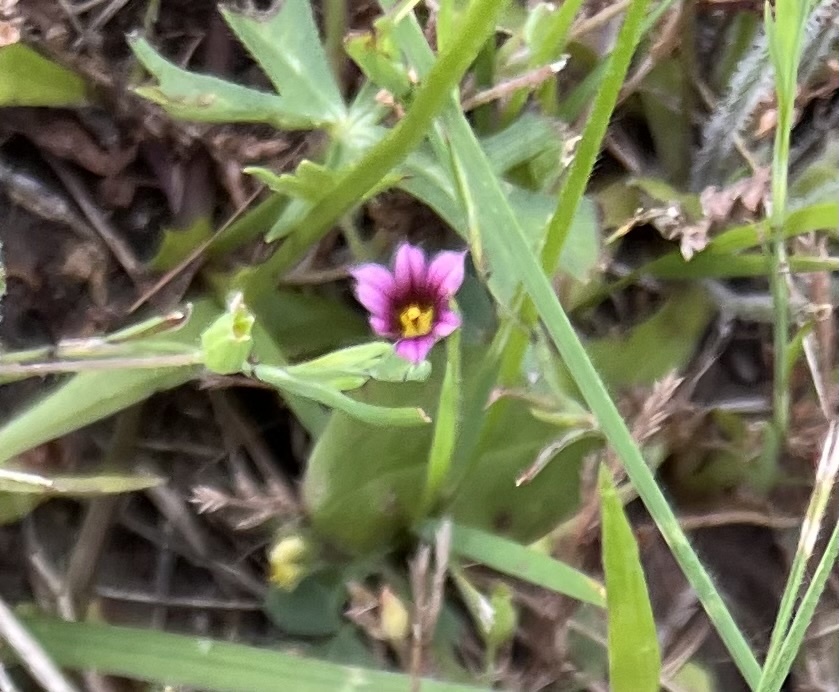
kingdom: Plantae
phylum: Tracheophyta
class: Liliopsida
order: Asparagales
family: Iridaceae
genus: Sisyrinchium
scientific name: Sisyrinchium minus
